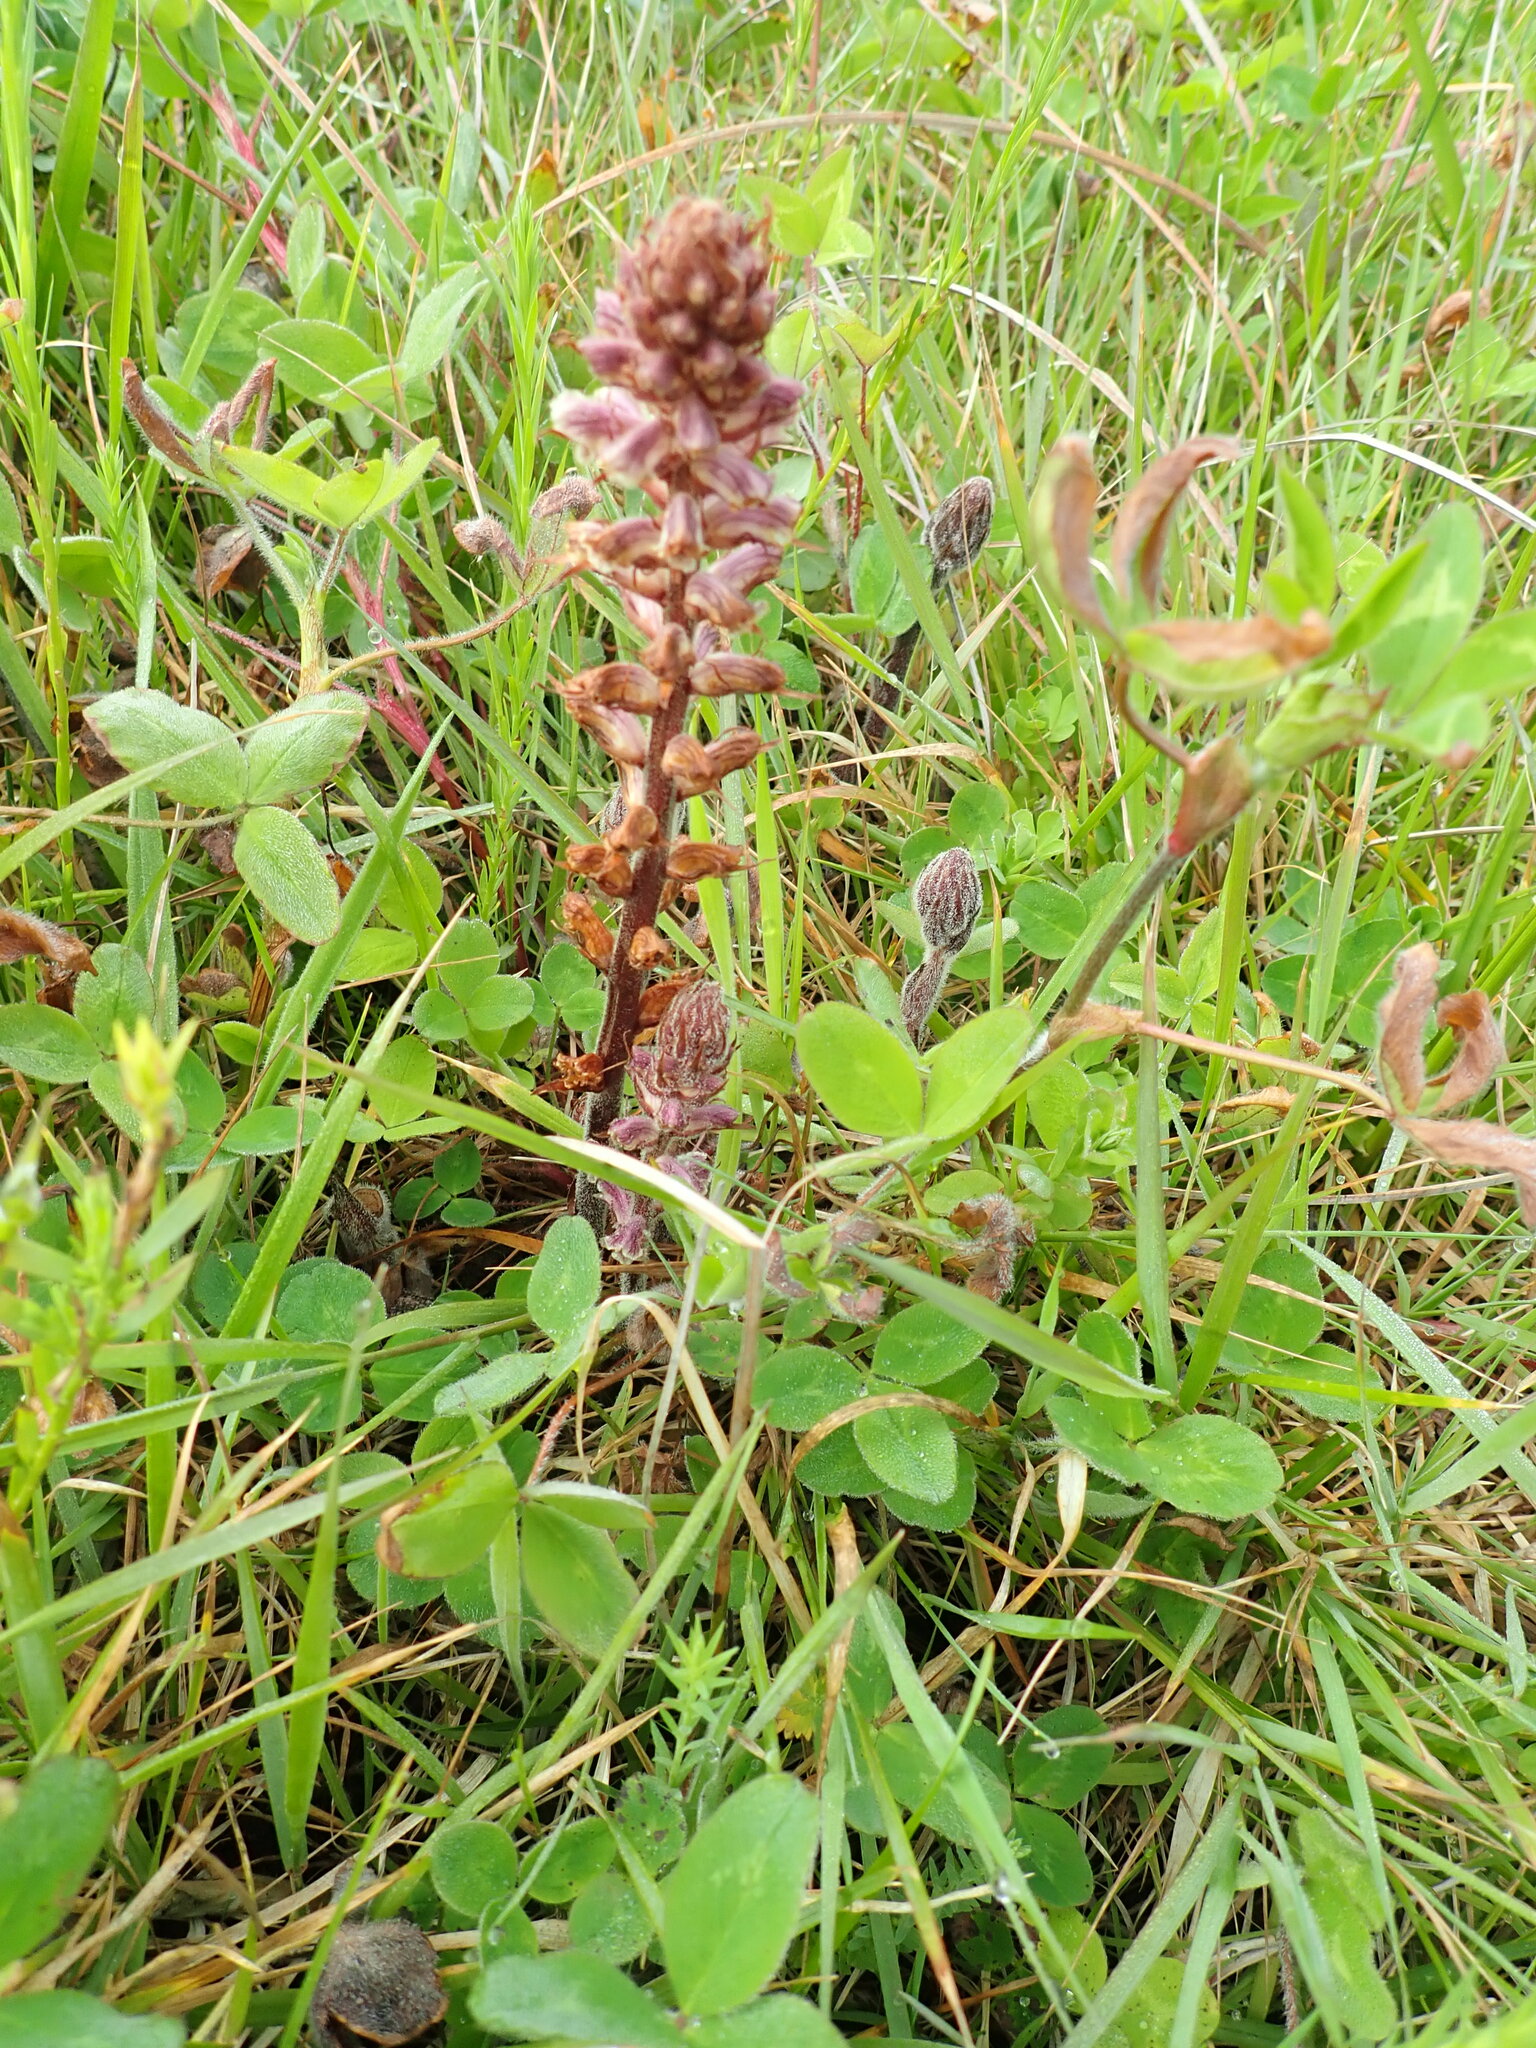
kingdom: Plantae
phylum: Tracheophyta
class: Magnoliopsida
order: Lamiales
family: Orobanchaceae
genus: Orobanche
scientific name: Orobanche minor
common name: Common broomrape
